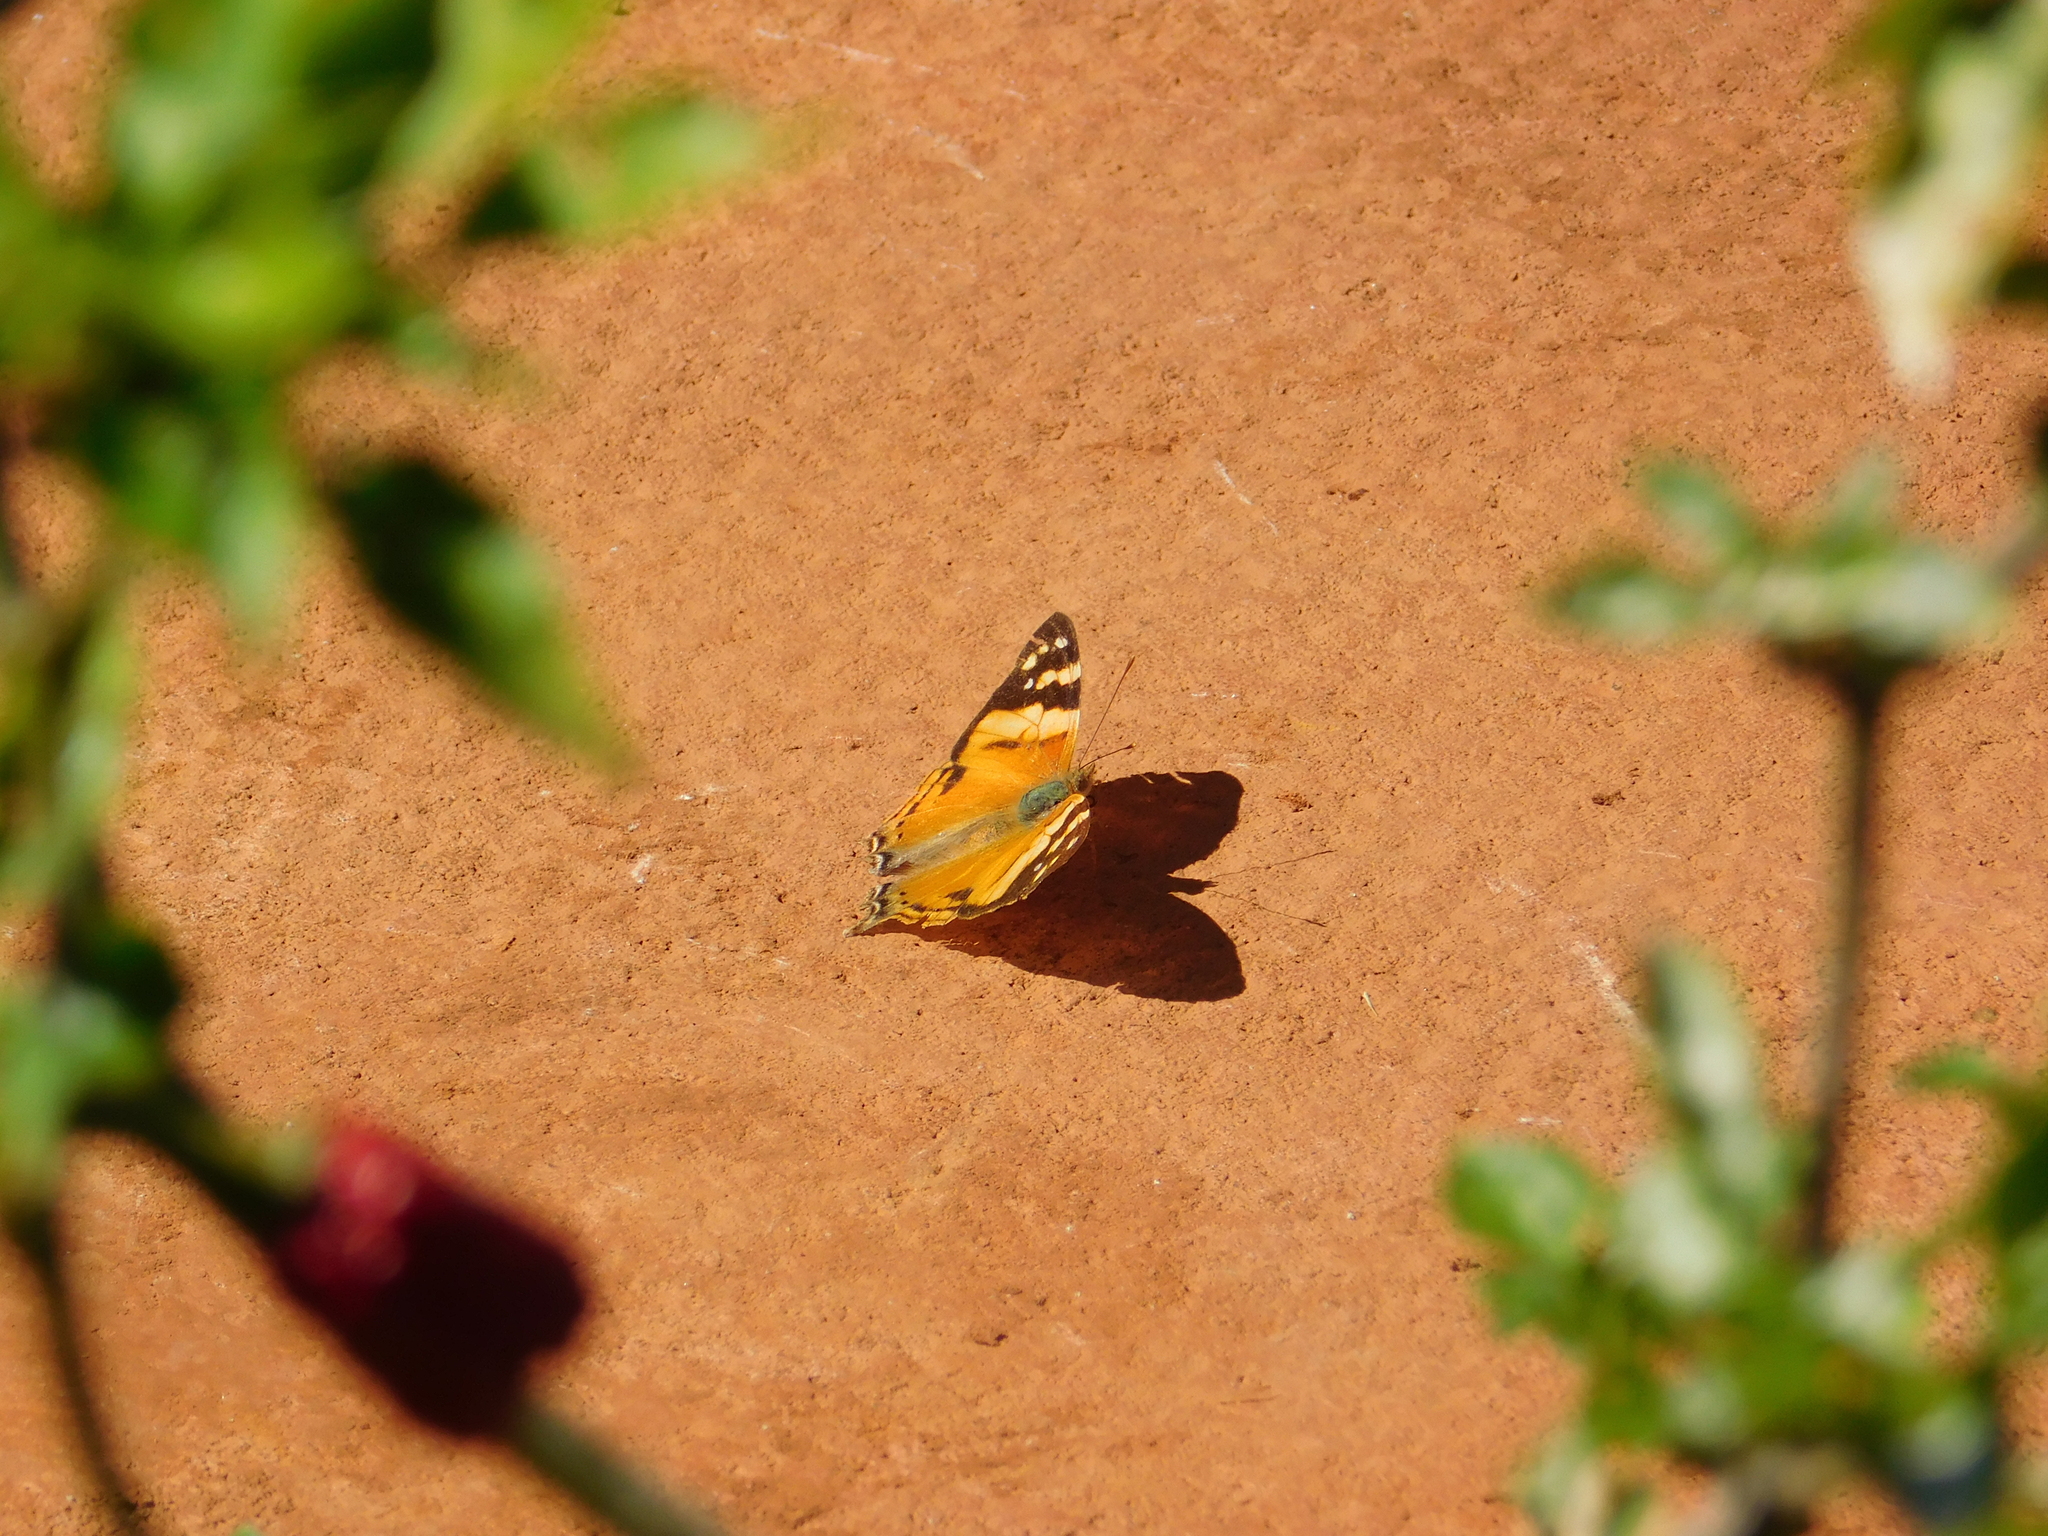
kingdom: Animalia
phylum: Arthropoda
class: Insecta
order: Lepidoptera
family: Nymphalidae
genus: Hypanartia
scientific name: Hypanartia lethe
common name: Orange mapwing
